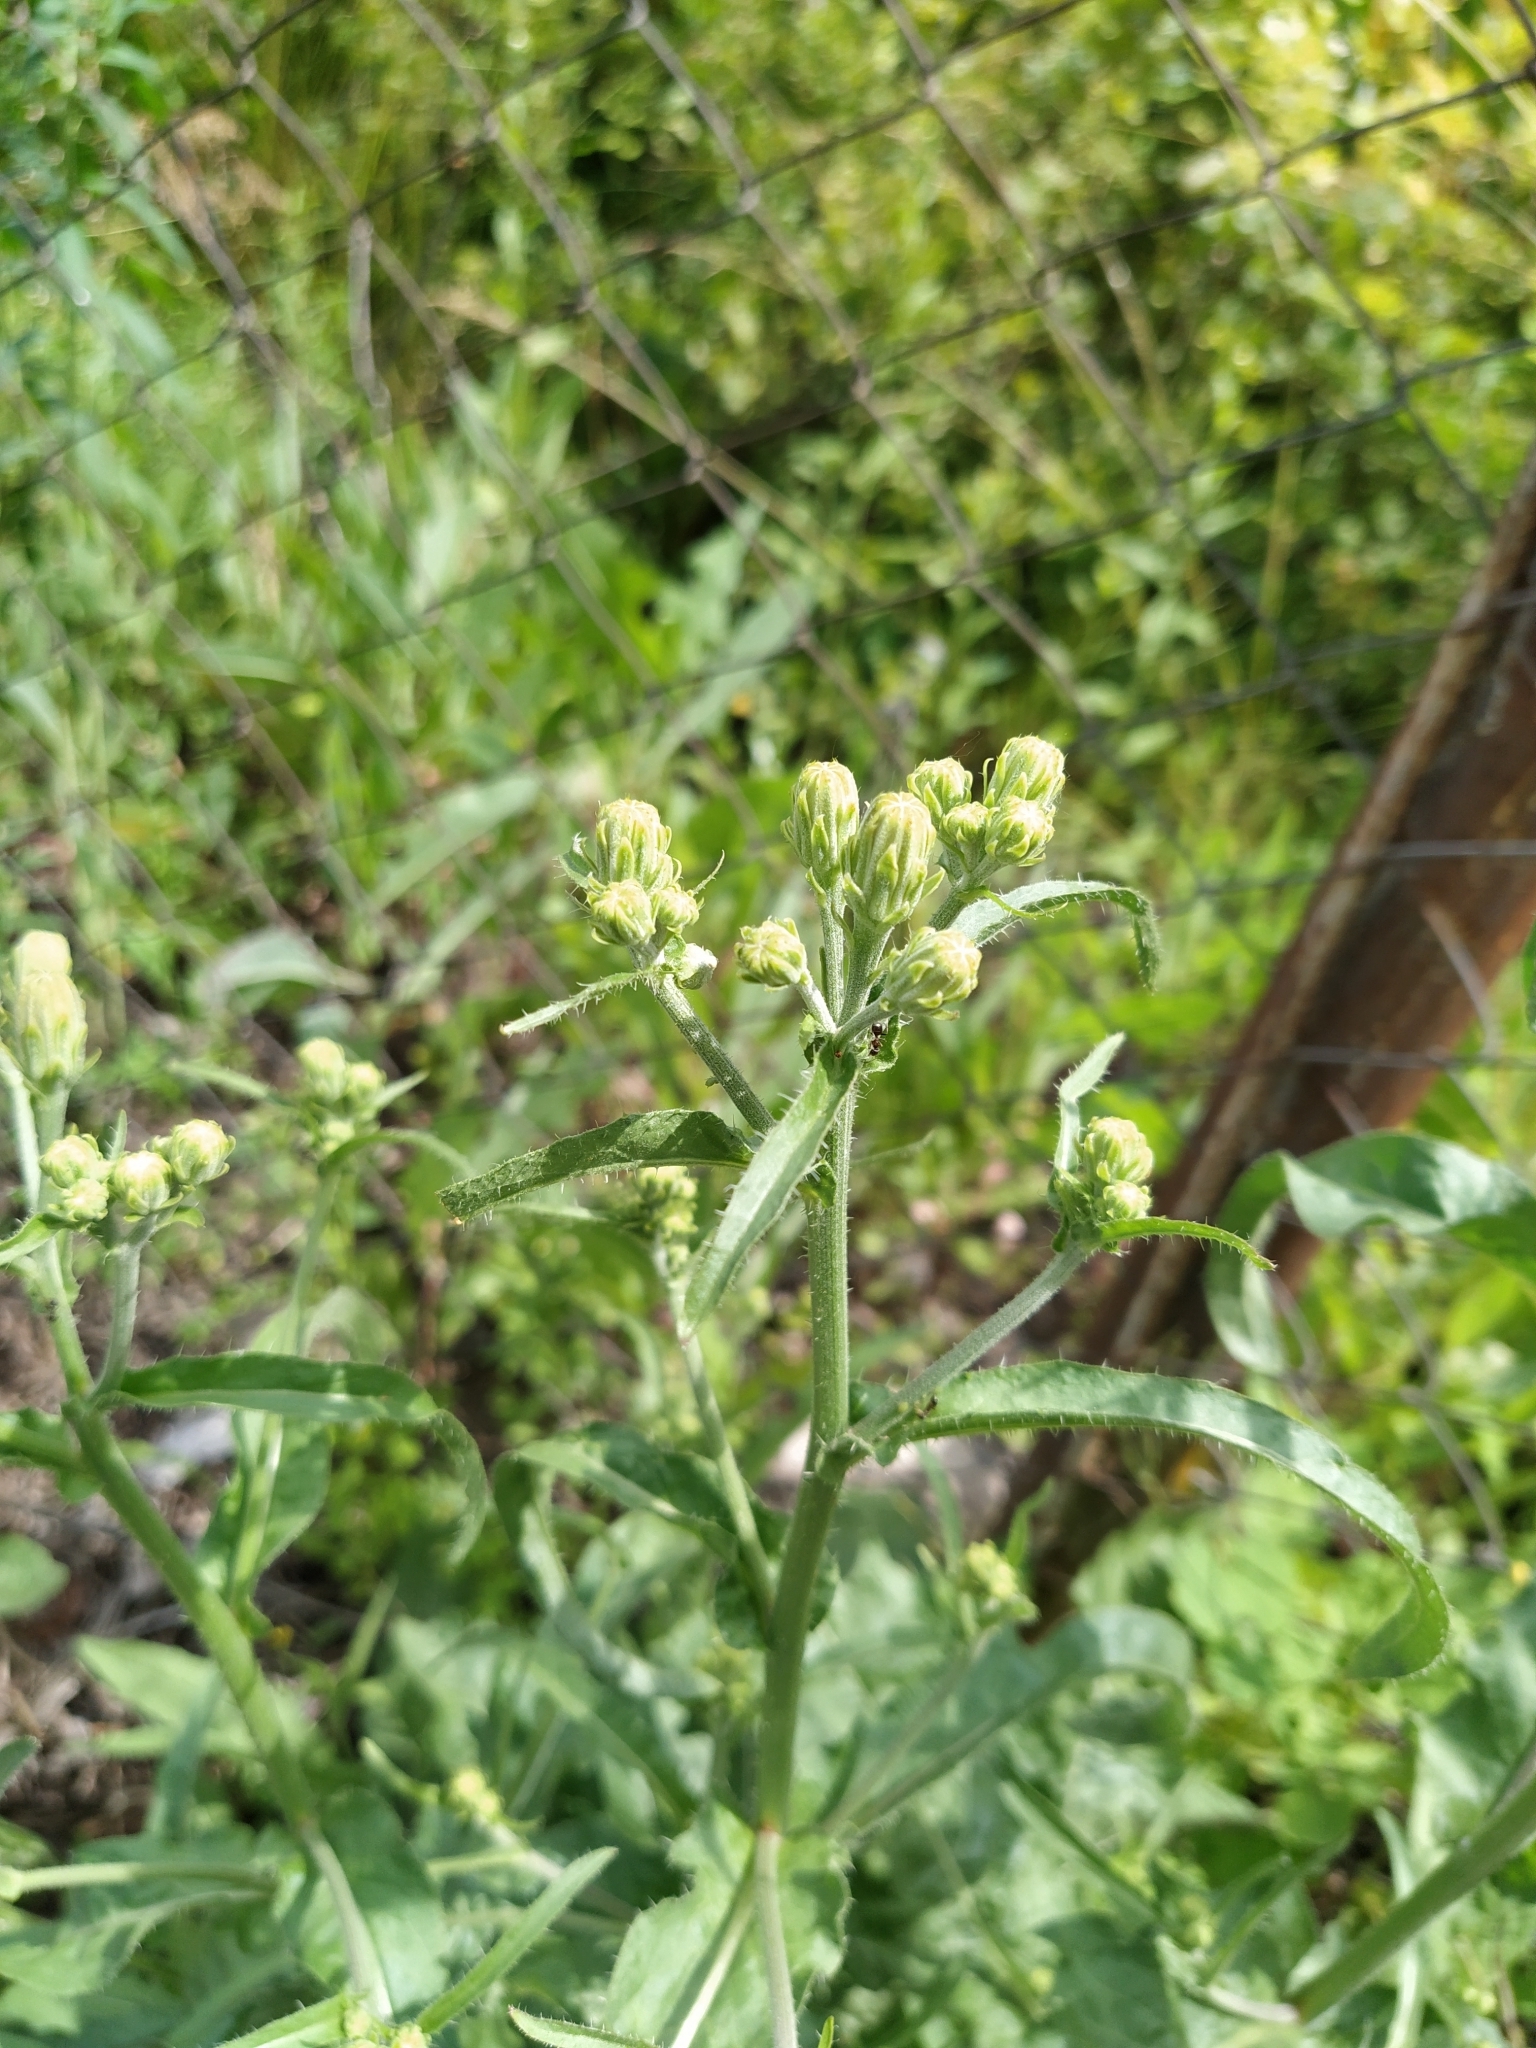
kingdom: Plantae
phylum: Tracheophyta
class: Magnoliopsida
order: Asterales
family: Asteraceae
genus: Picris
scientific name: Picris hieracioides
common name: Hawkweed oxtongue
